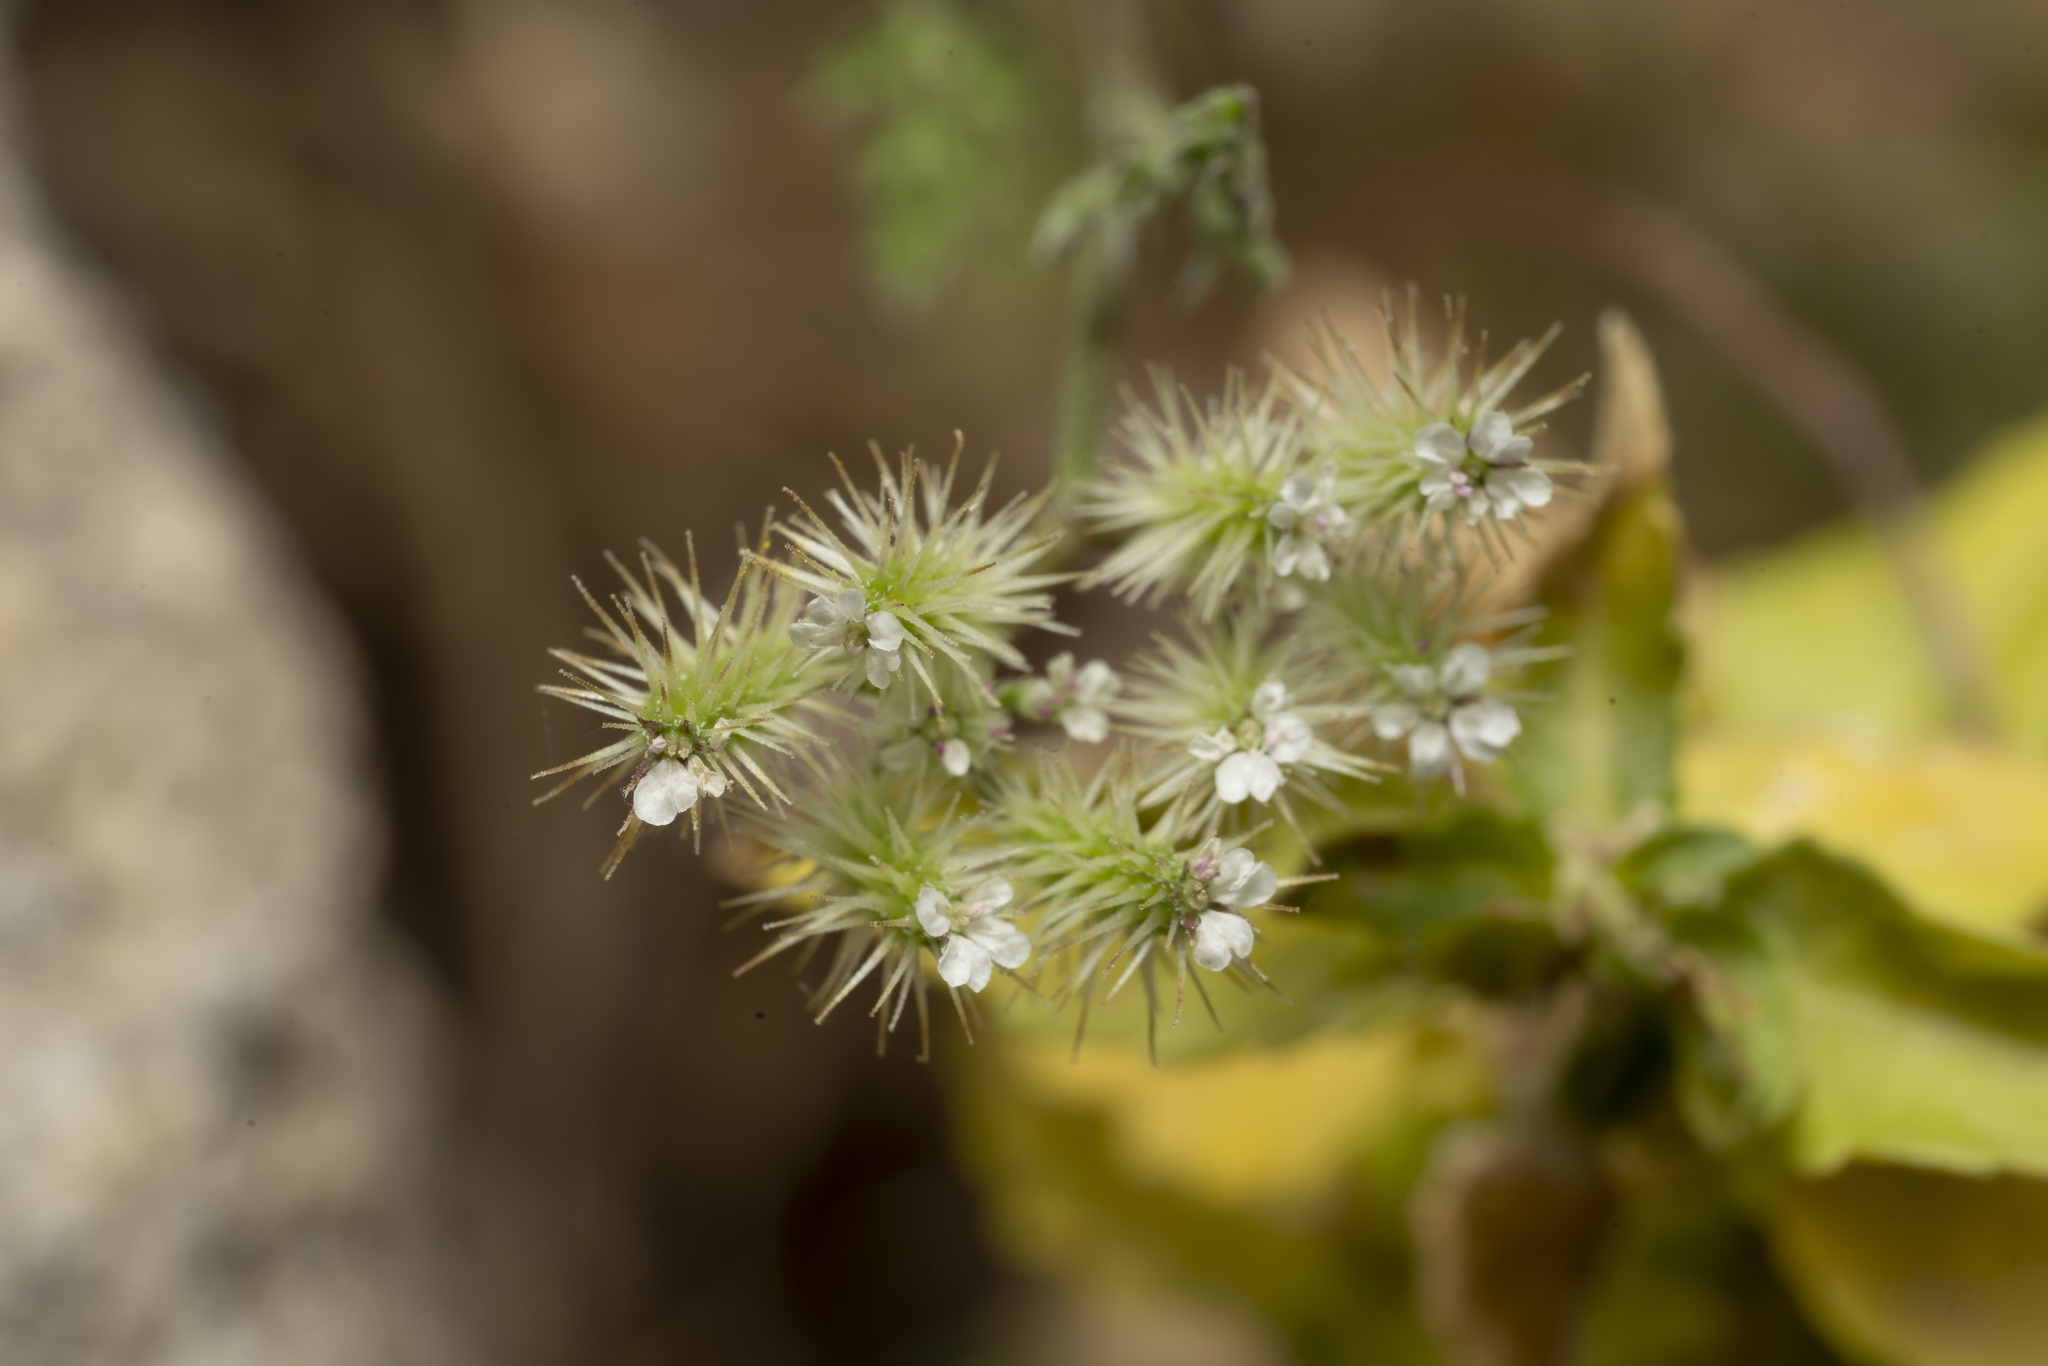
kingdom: Plantae
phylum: Tracheophyta
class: Magnoliopsida
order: Apiales
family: Apiaceae
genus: Torilis
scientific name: Torilis leptophylla
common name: Bristlefruit hedgeparsley
